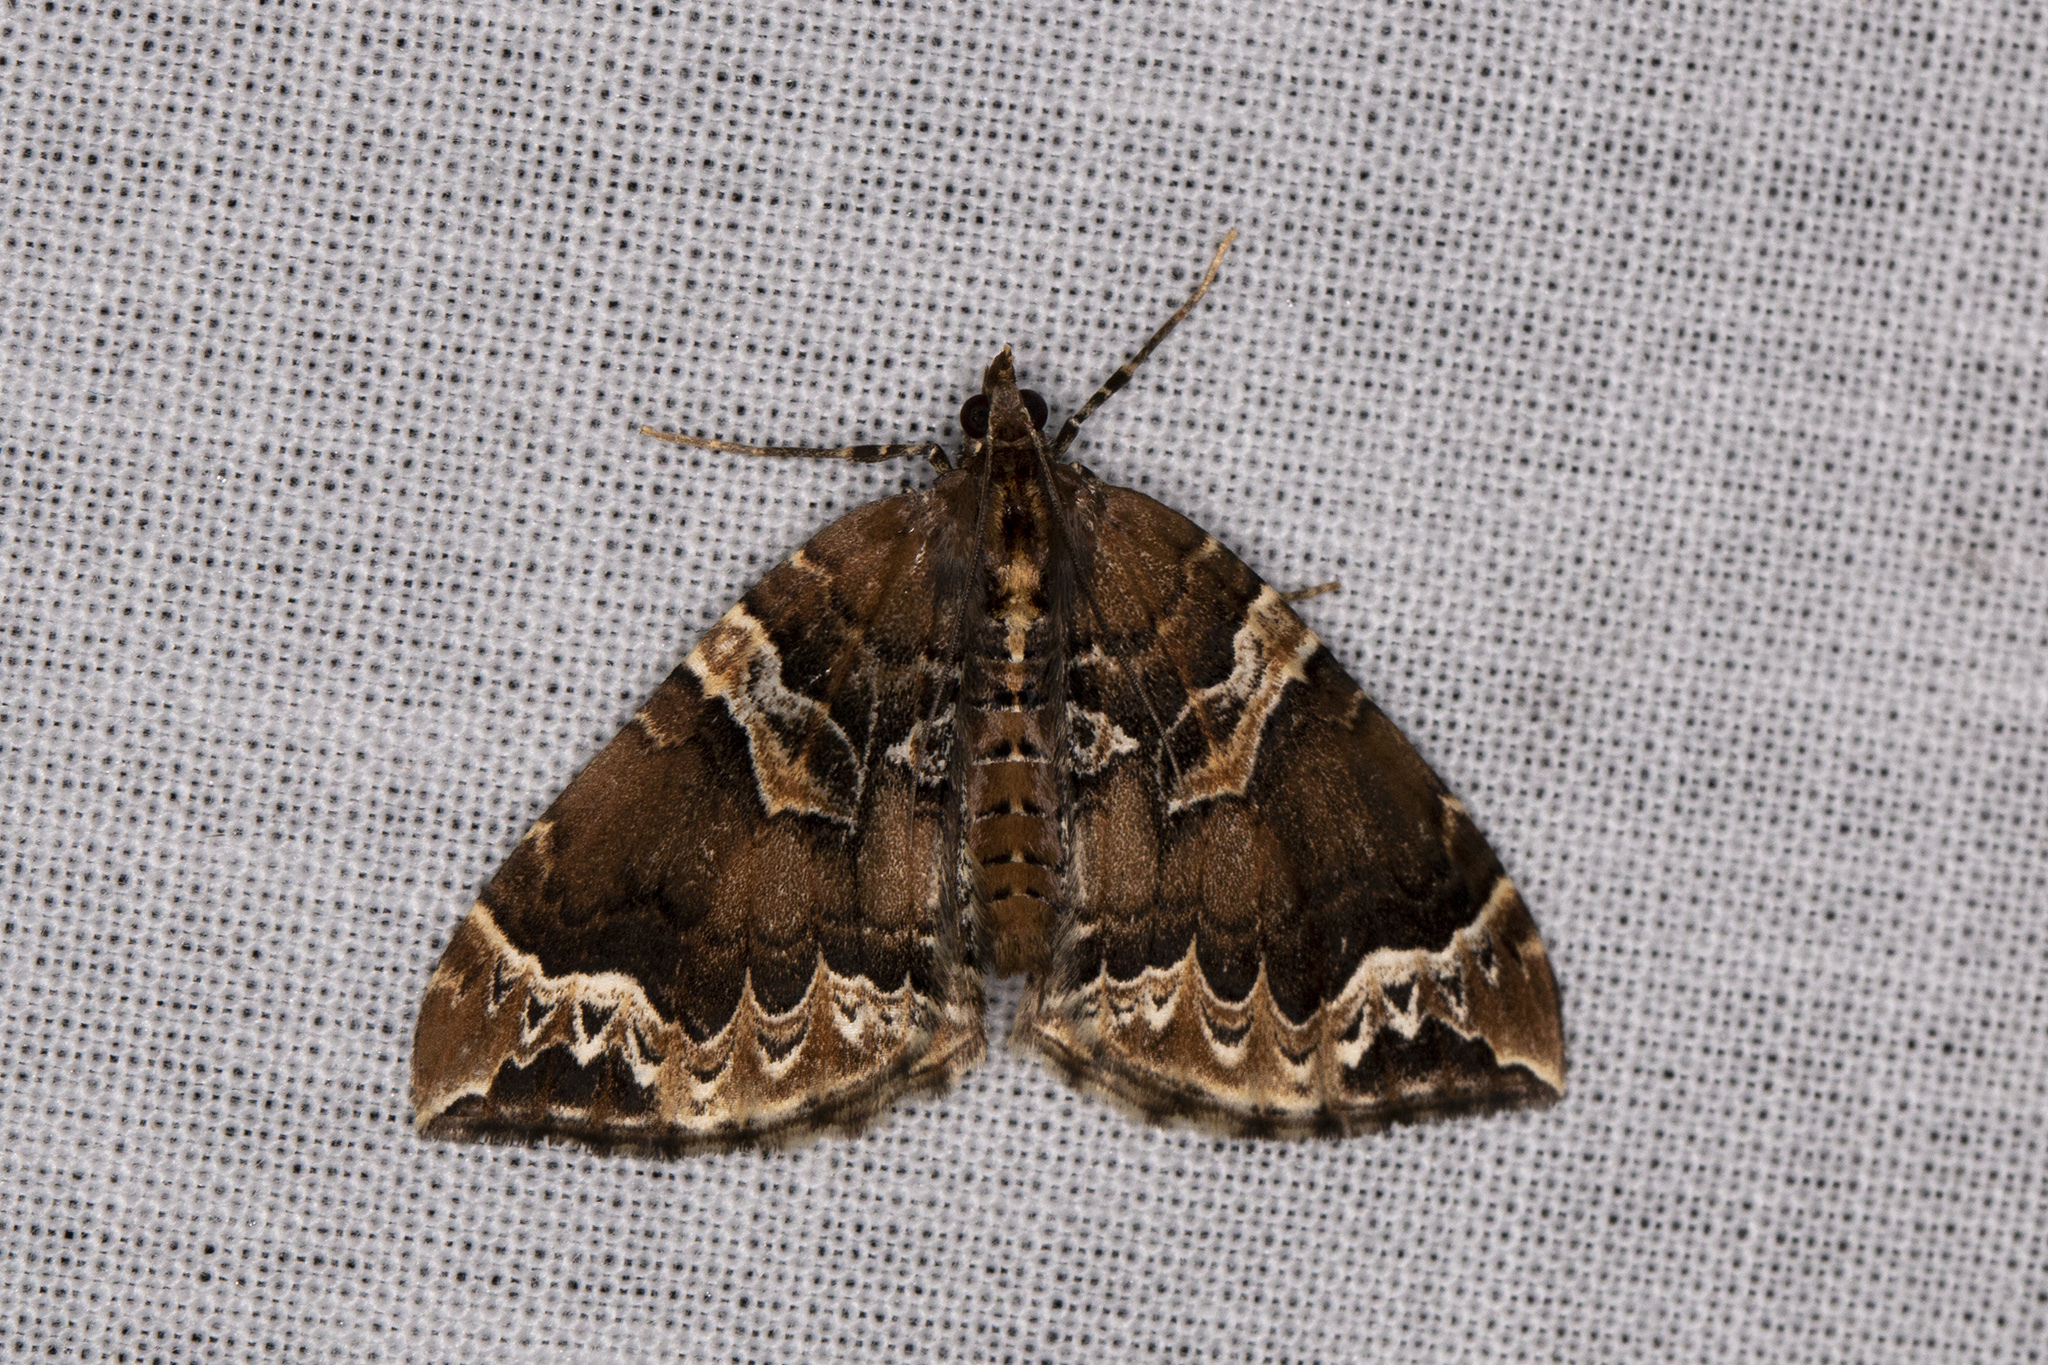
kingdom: Animalia
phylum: Arthropoda
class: Insecta
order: Lepidoptera
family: Geometridae
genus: Eulithis
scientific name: Eulithis prunata
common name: Phoenix
